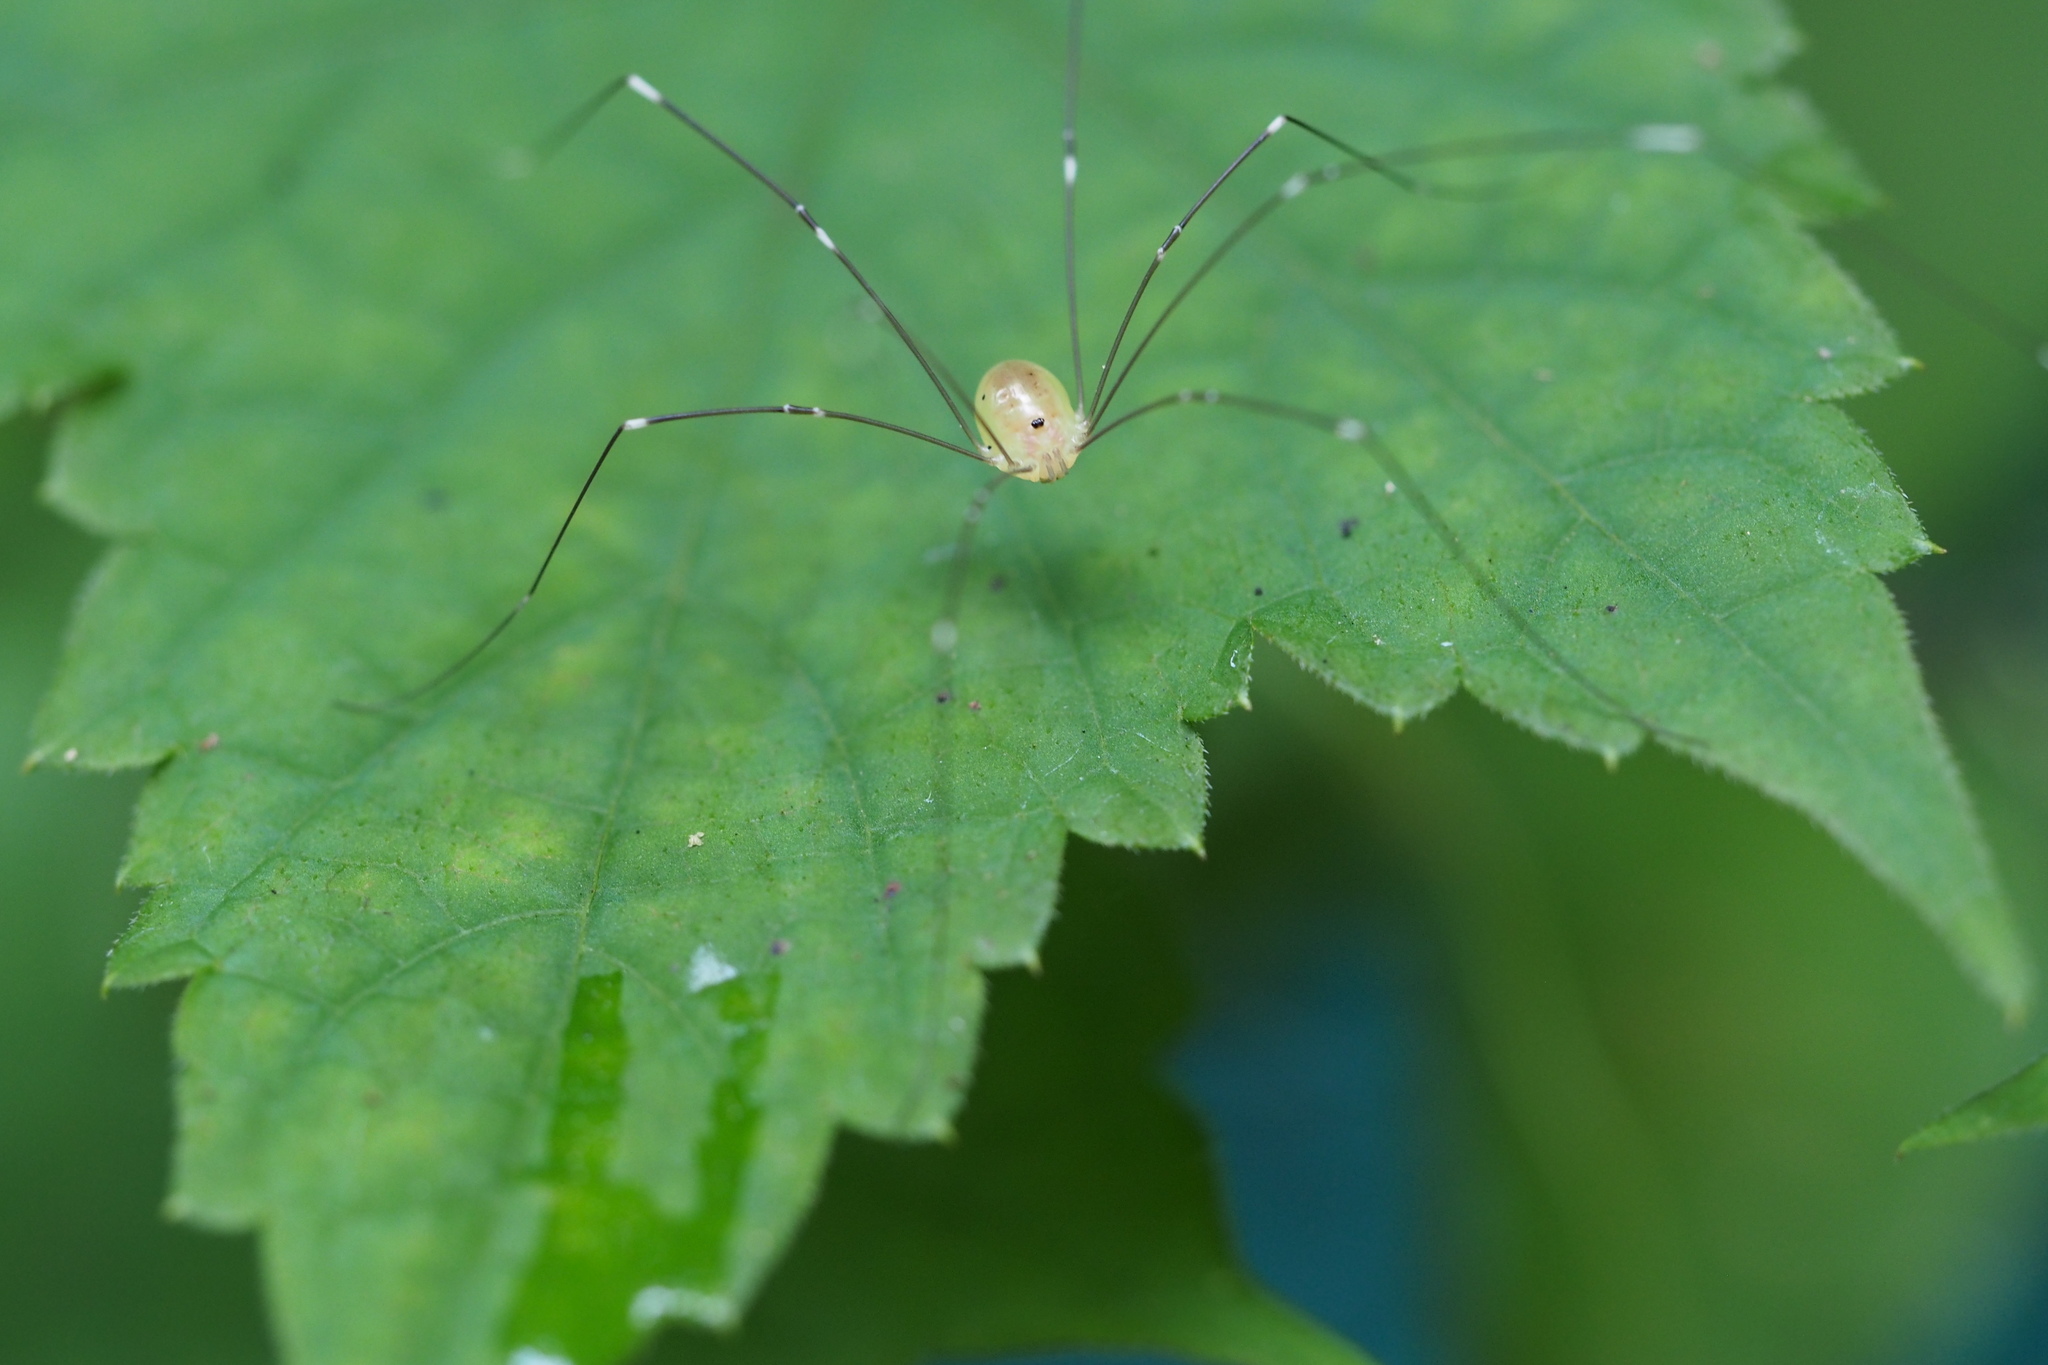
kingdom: Animalia
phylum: Arthropoda
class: Arachnida
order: Opiliones
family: Sclerosomatidae
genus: Leiobunum
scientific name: Leiobunum japonicum
